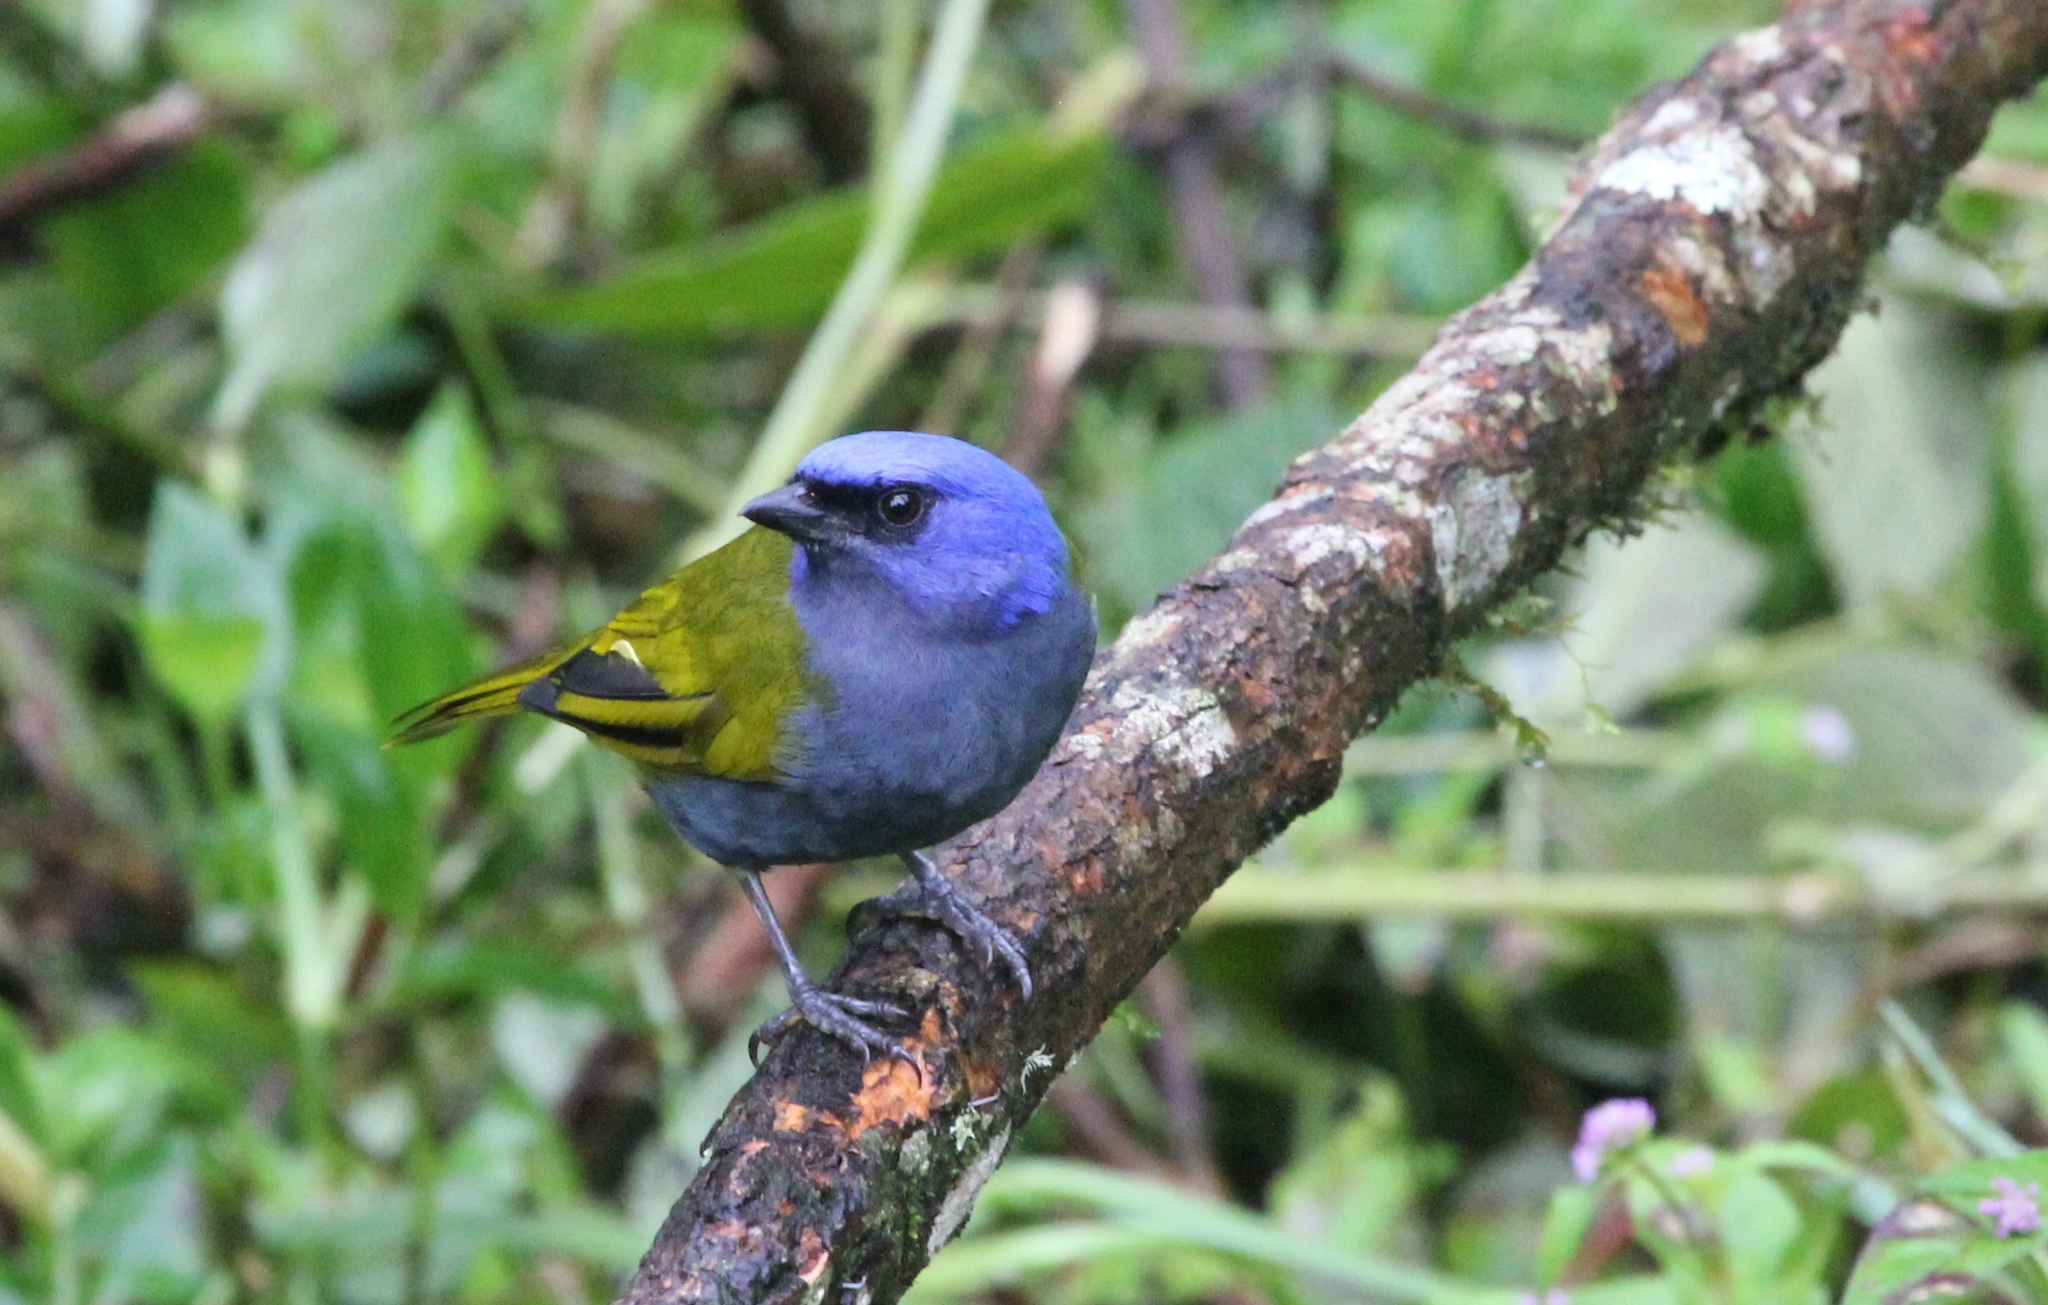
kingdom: Animalia
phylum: Chordata
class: Aves
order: Passeriformes
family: Thraupidae
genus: Sporathraupis
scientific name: Sporathraupis cyanocephala
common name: Blue-capped tanager
